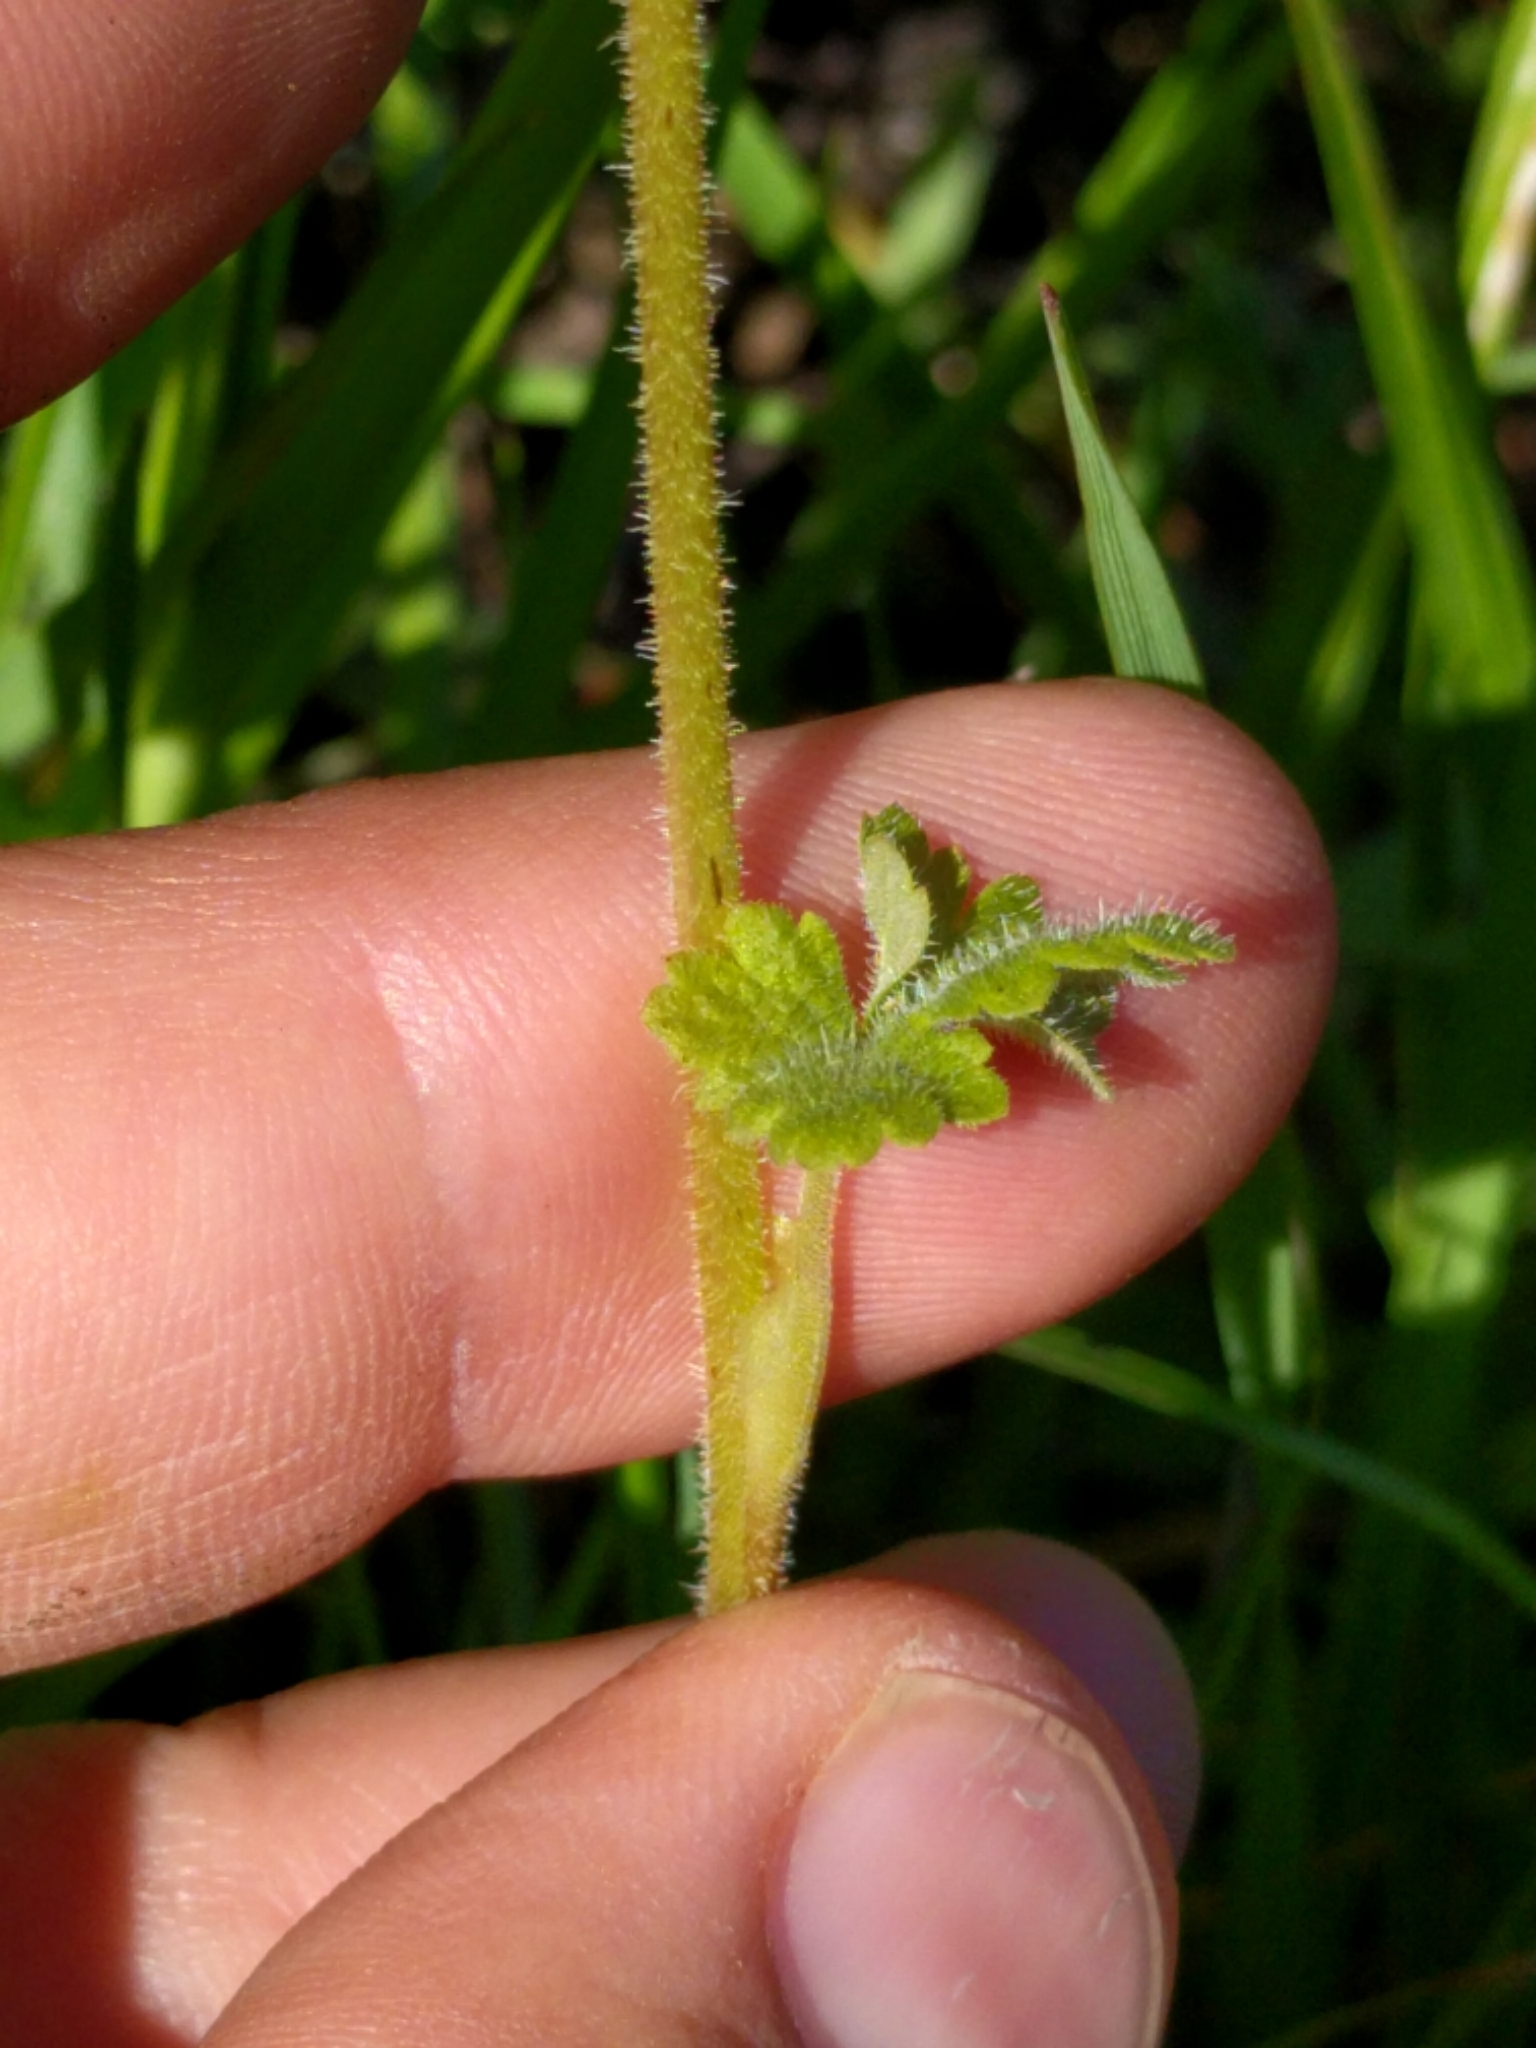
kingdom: Plantae
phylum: Tracheophyta
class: Magnoliopsida
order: Saxifragales
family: Saxifragaceae
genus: Lithophragma
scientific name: Lithophragma affine
